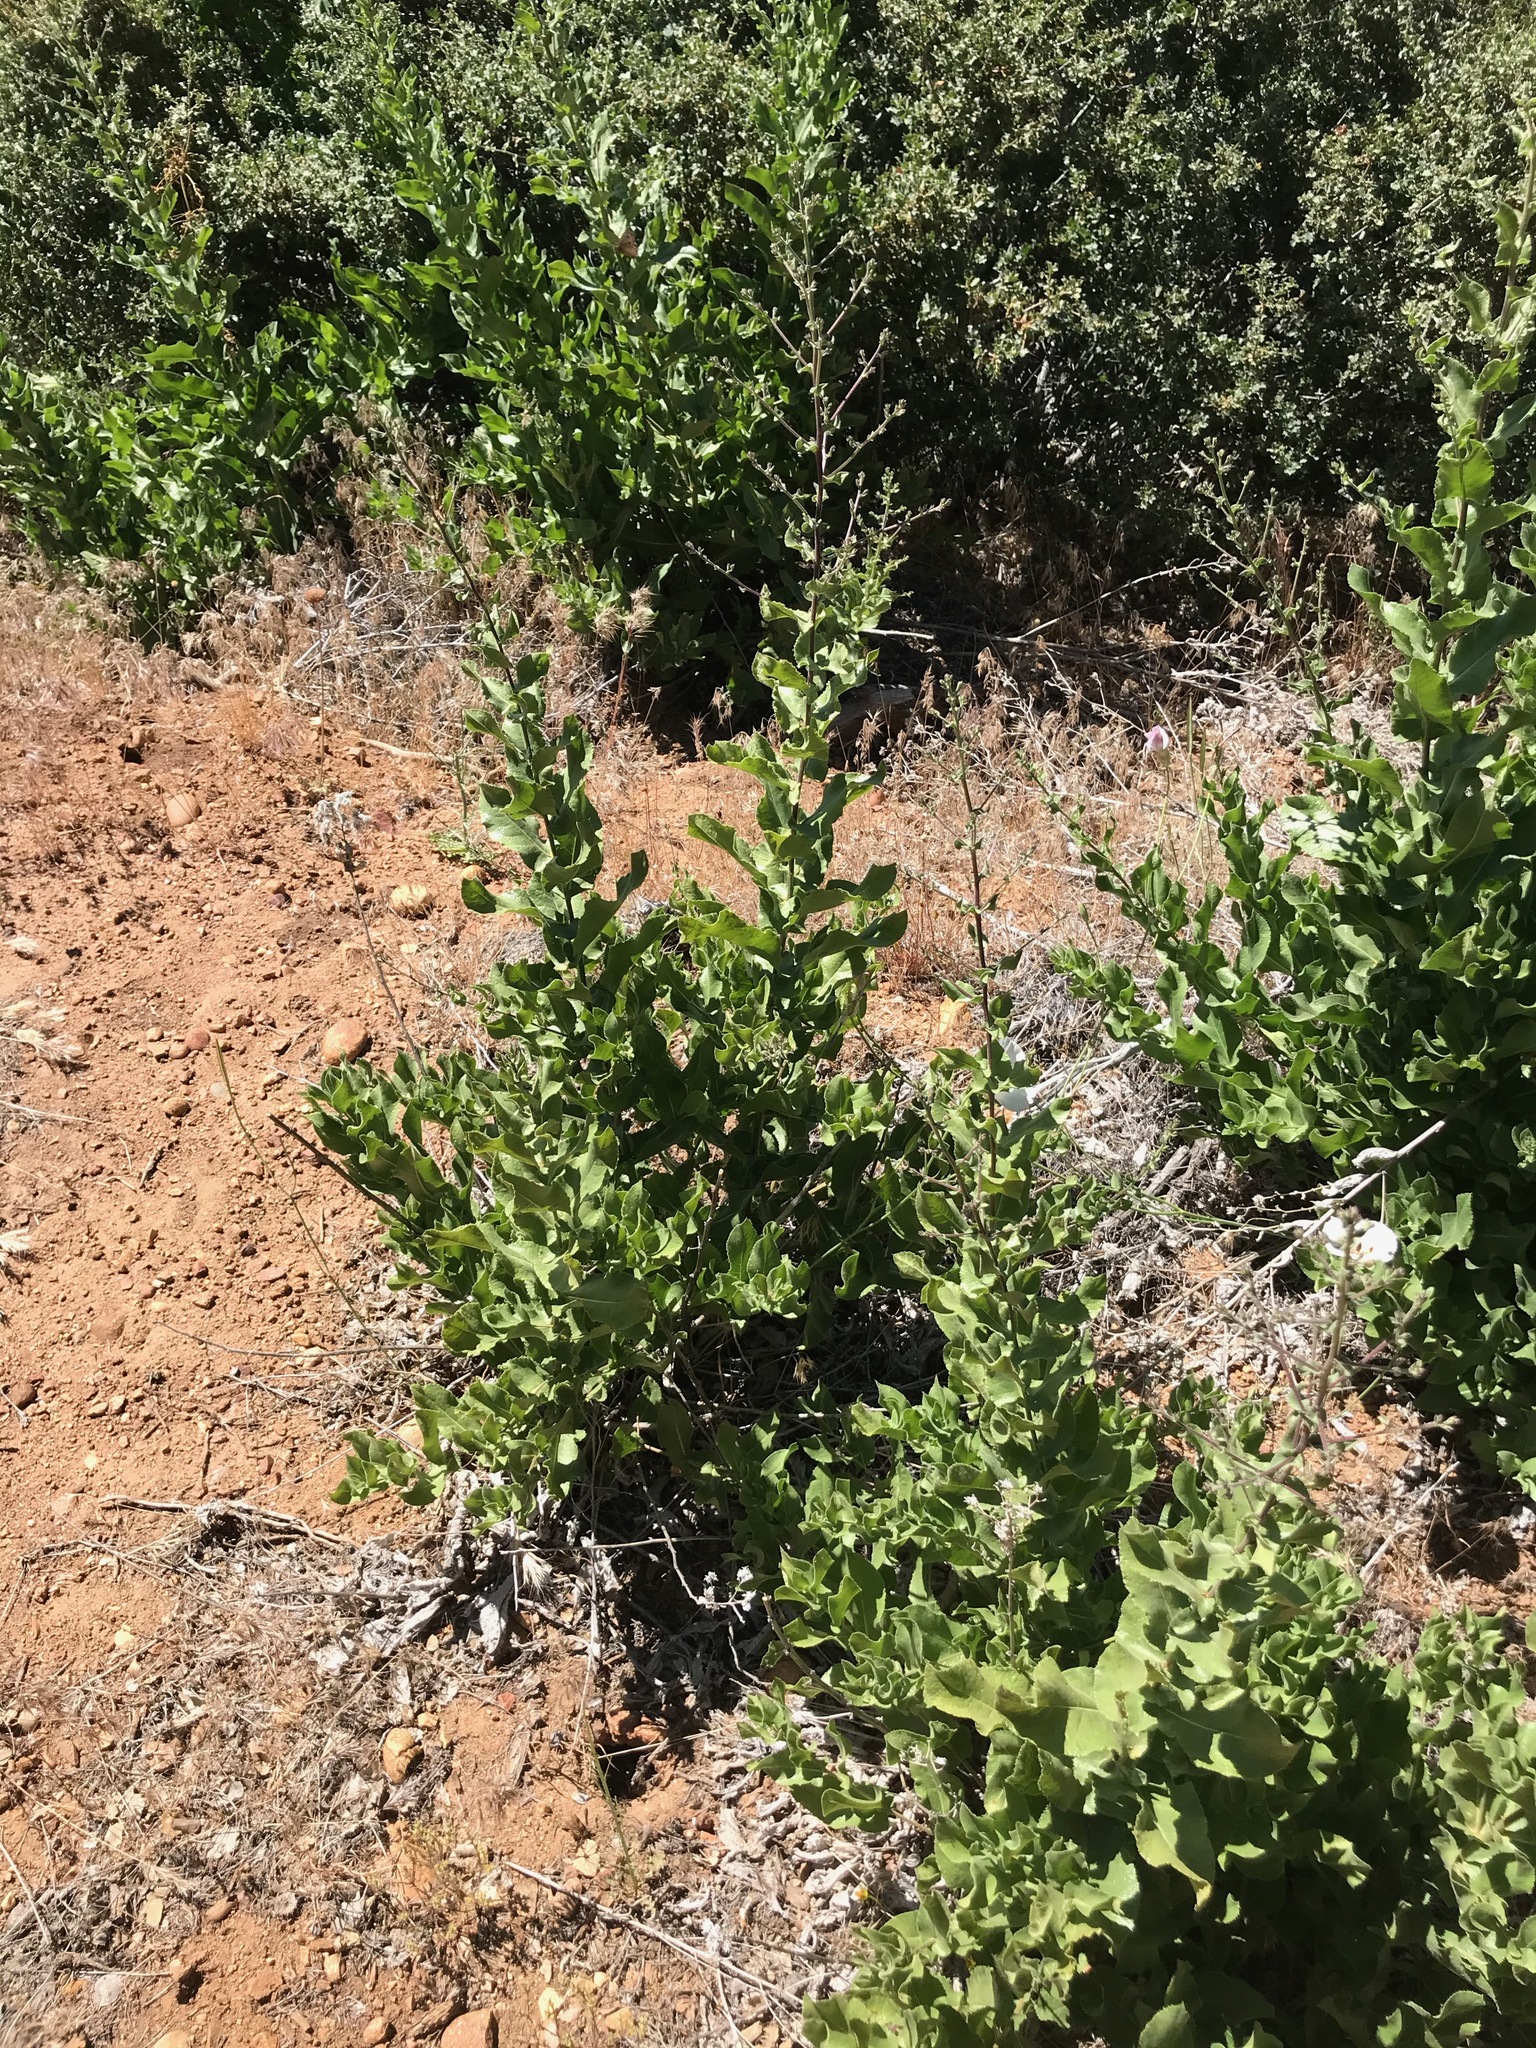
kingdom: Plantae
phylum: Tracheophyta
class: Magnoliopsida
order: Asterales
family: Asteraceae
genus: Acourtia
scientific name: Acourtia microcephala
